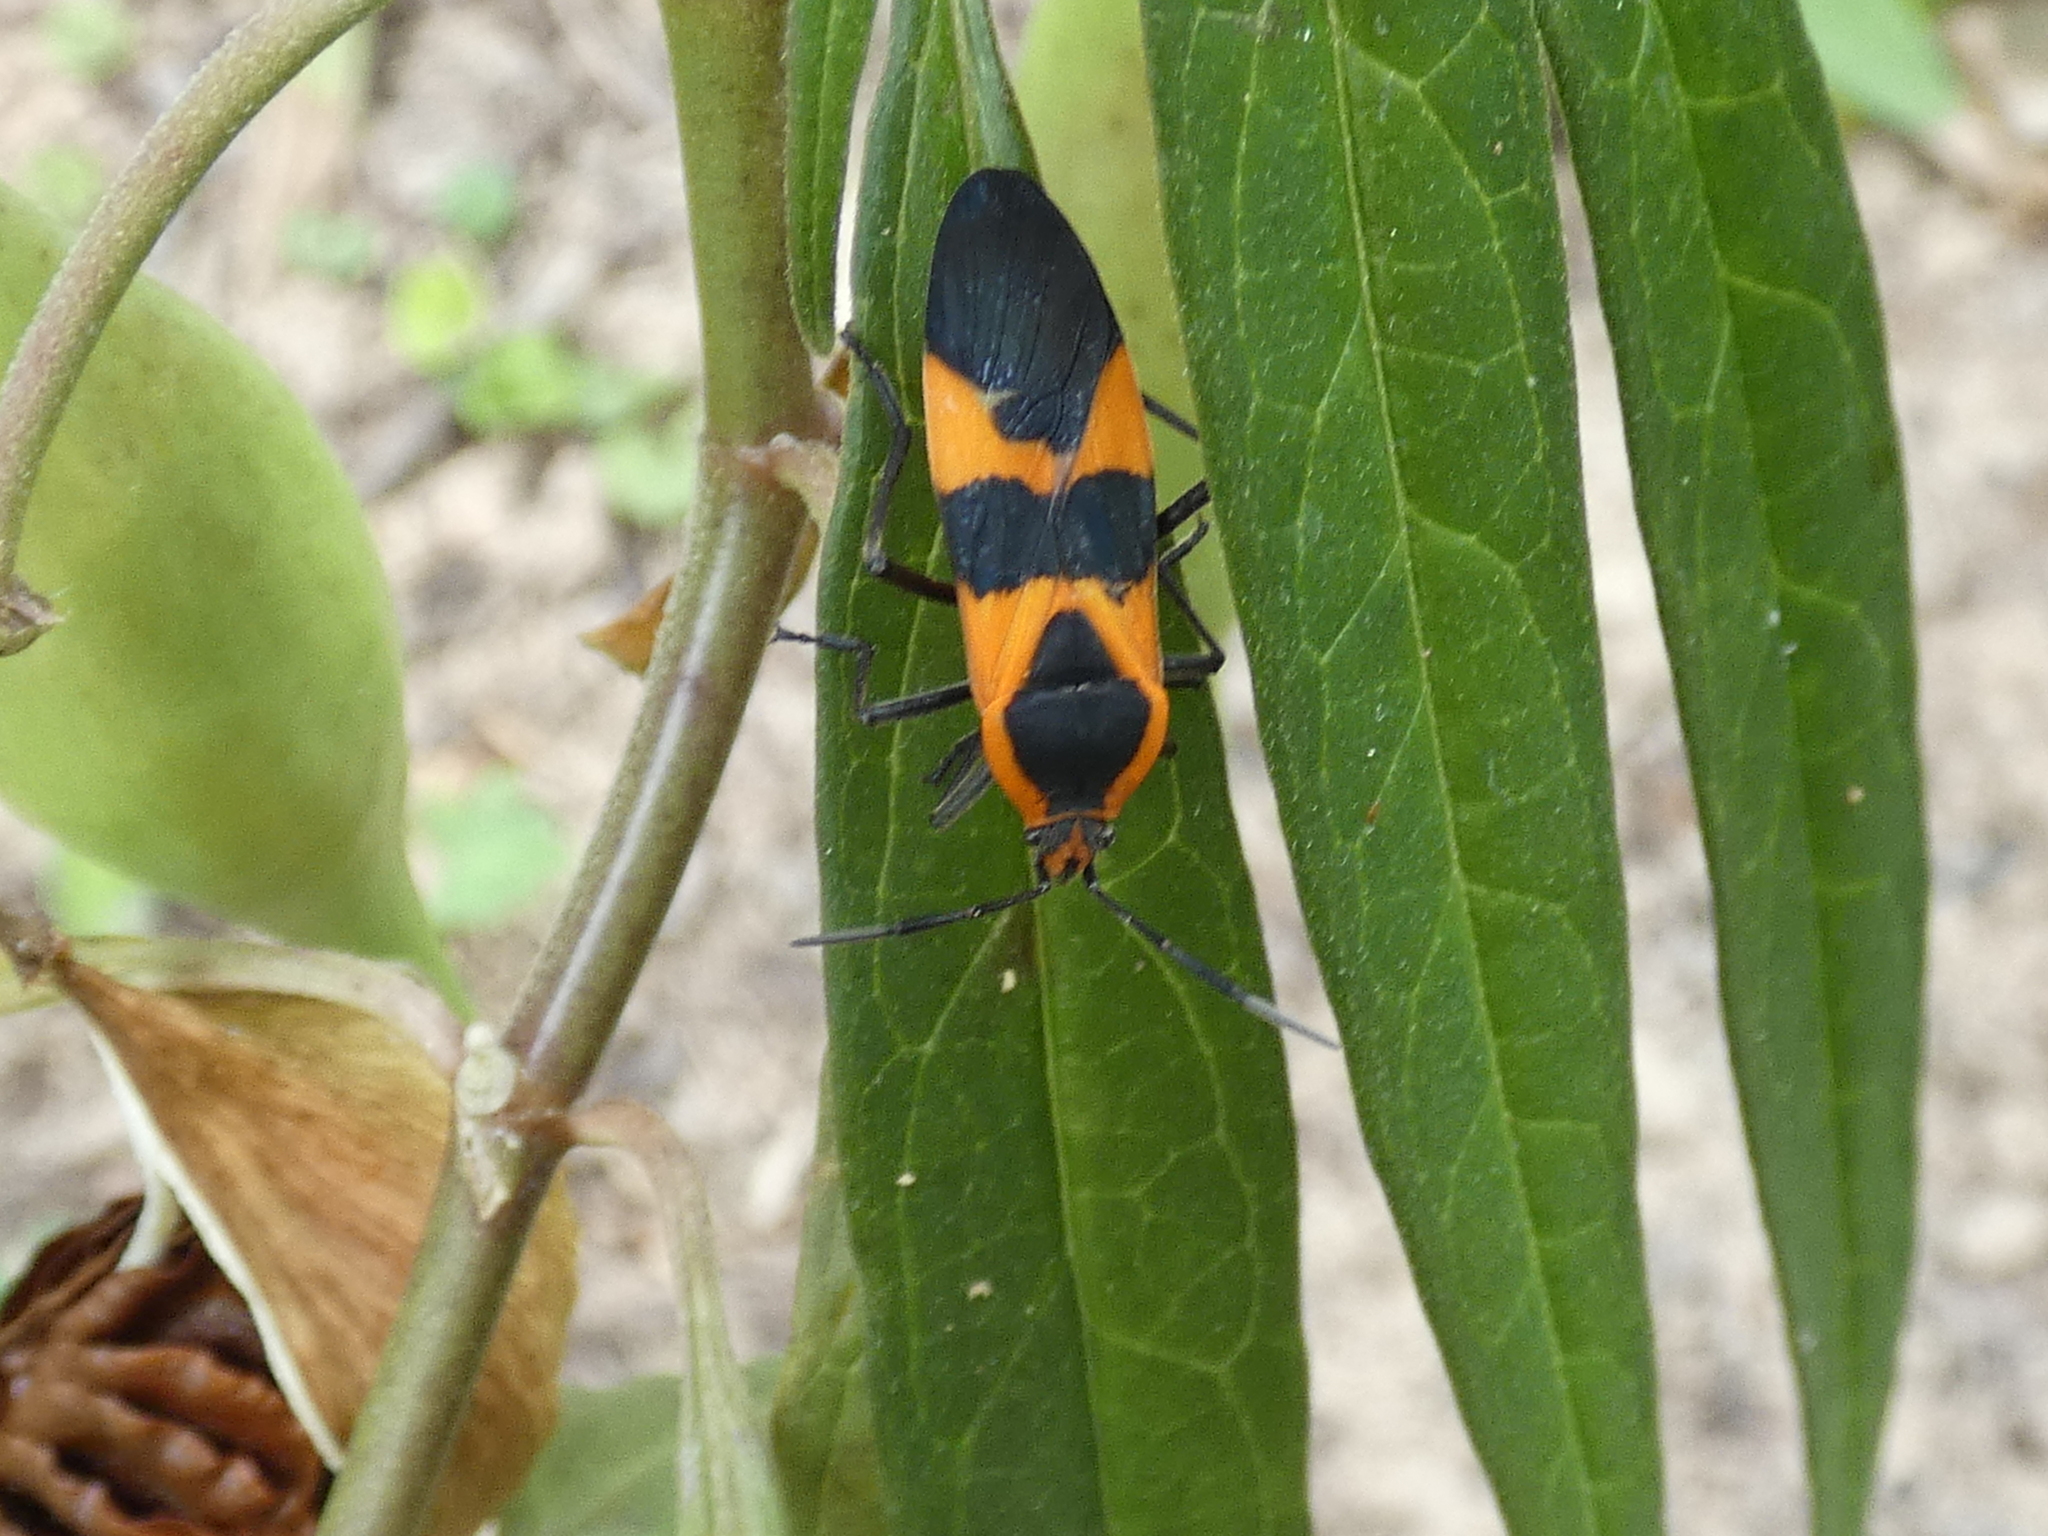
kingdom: Animalia
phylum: Arthropoda
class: Insecta
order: Hemiptera
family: Lygaeidae
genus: Oncopeltus
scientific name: Oncopeltus fasciatus
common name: Large milkweed bug
